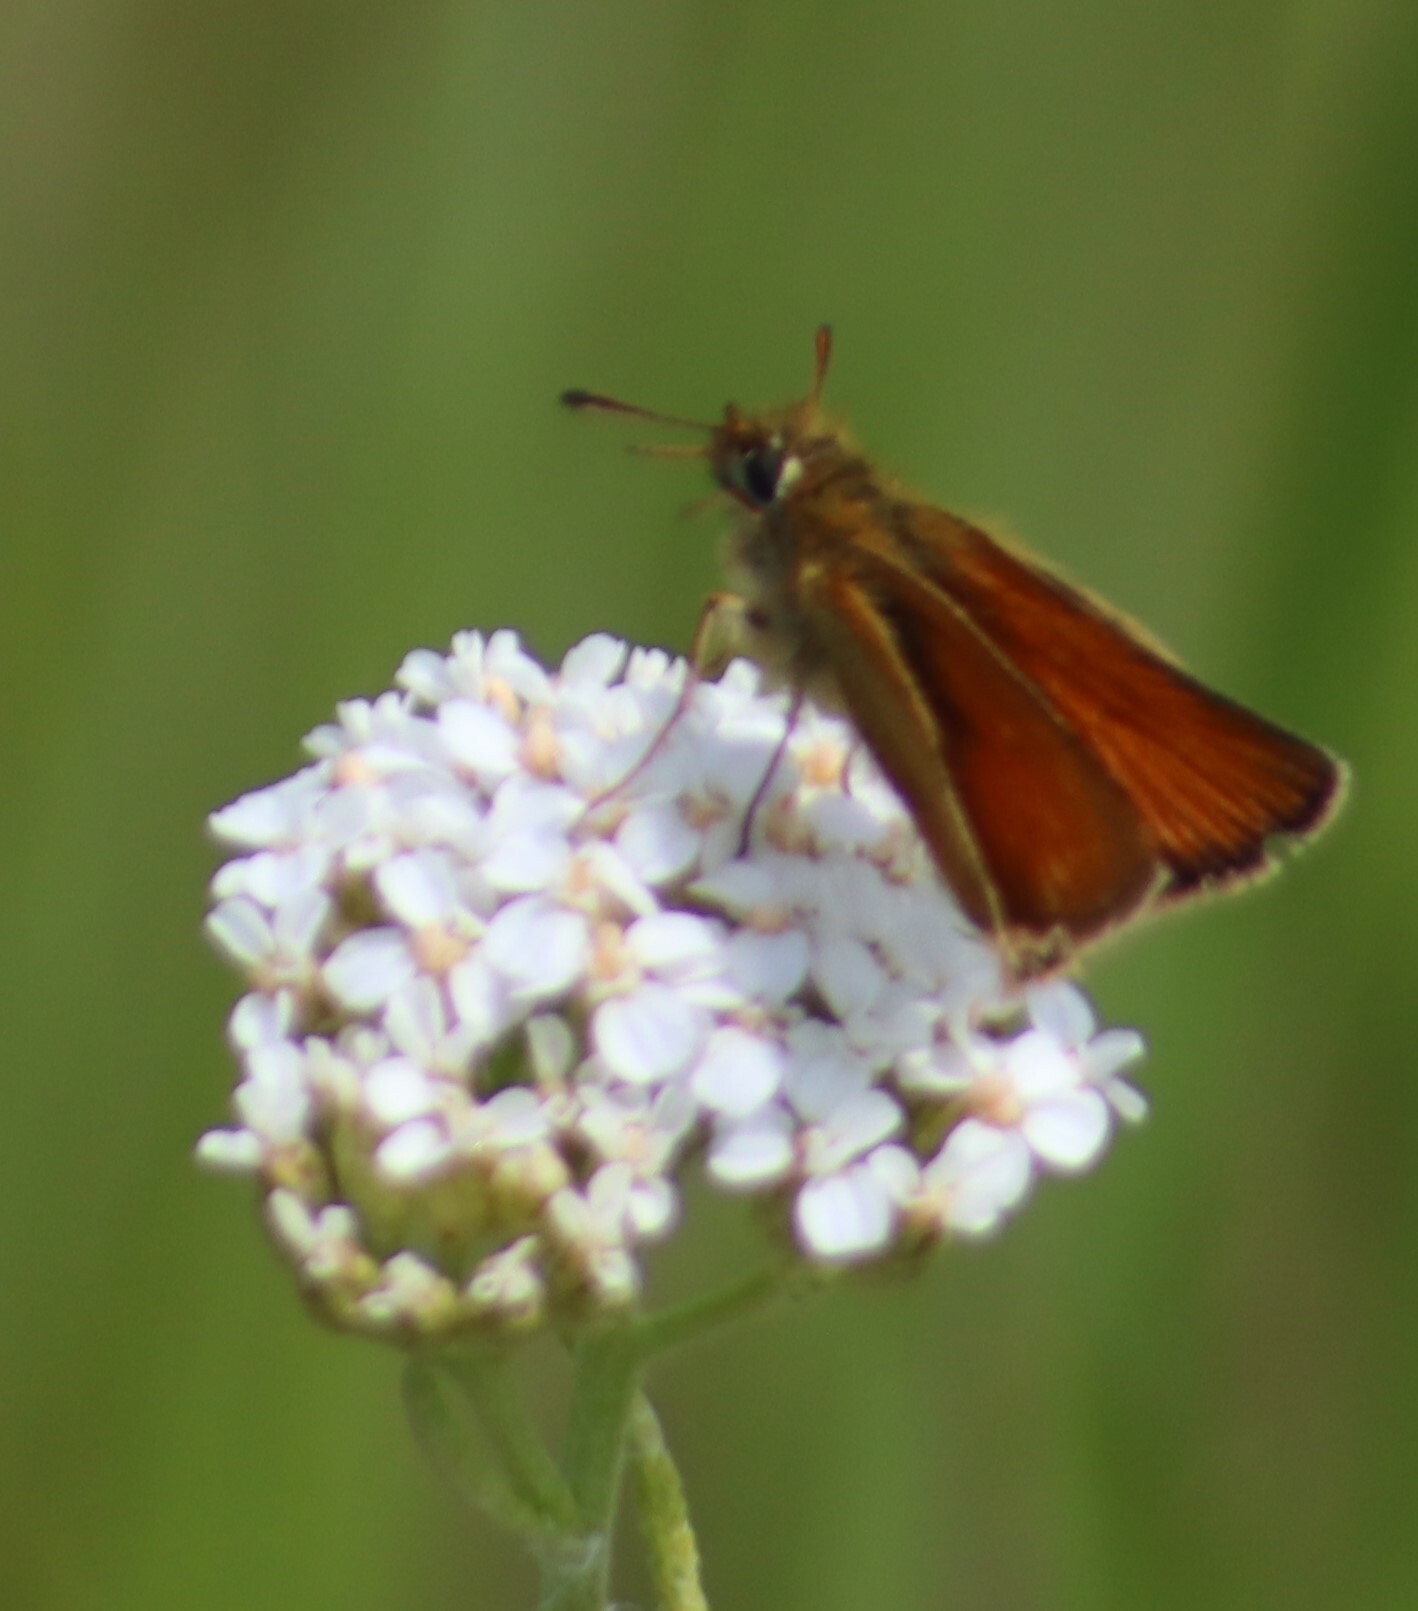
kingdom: Animalia
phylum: Arthropoda
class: Insecta
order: Lepidoptera
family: Hesperiidae
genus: Thymelicus
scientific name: Thymelicus lineola
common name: Essex skipper
